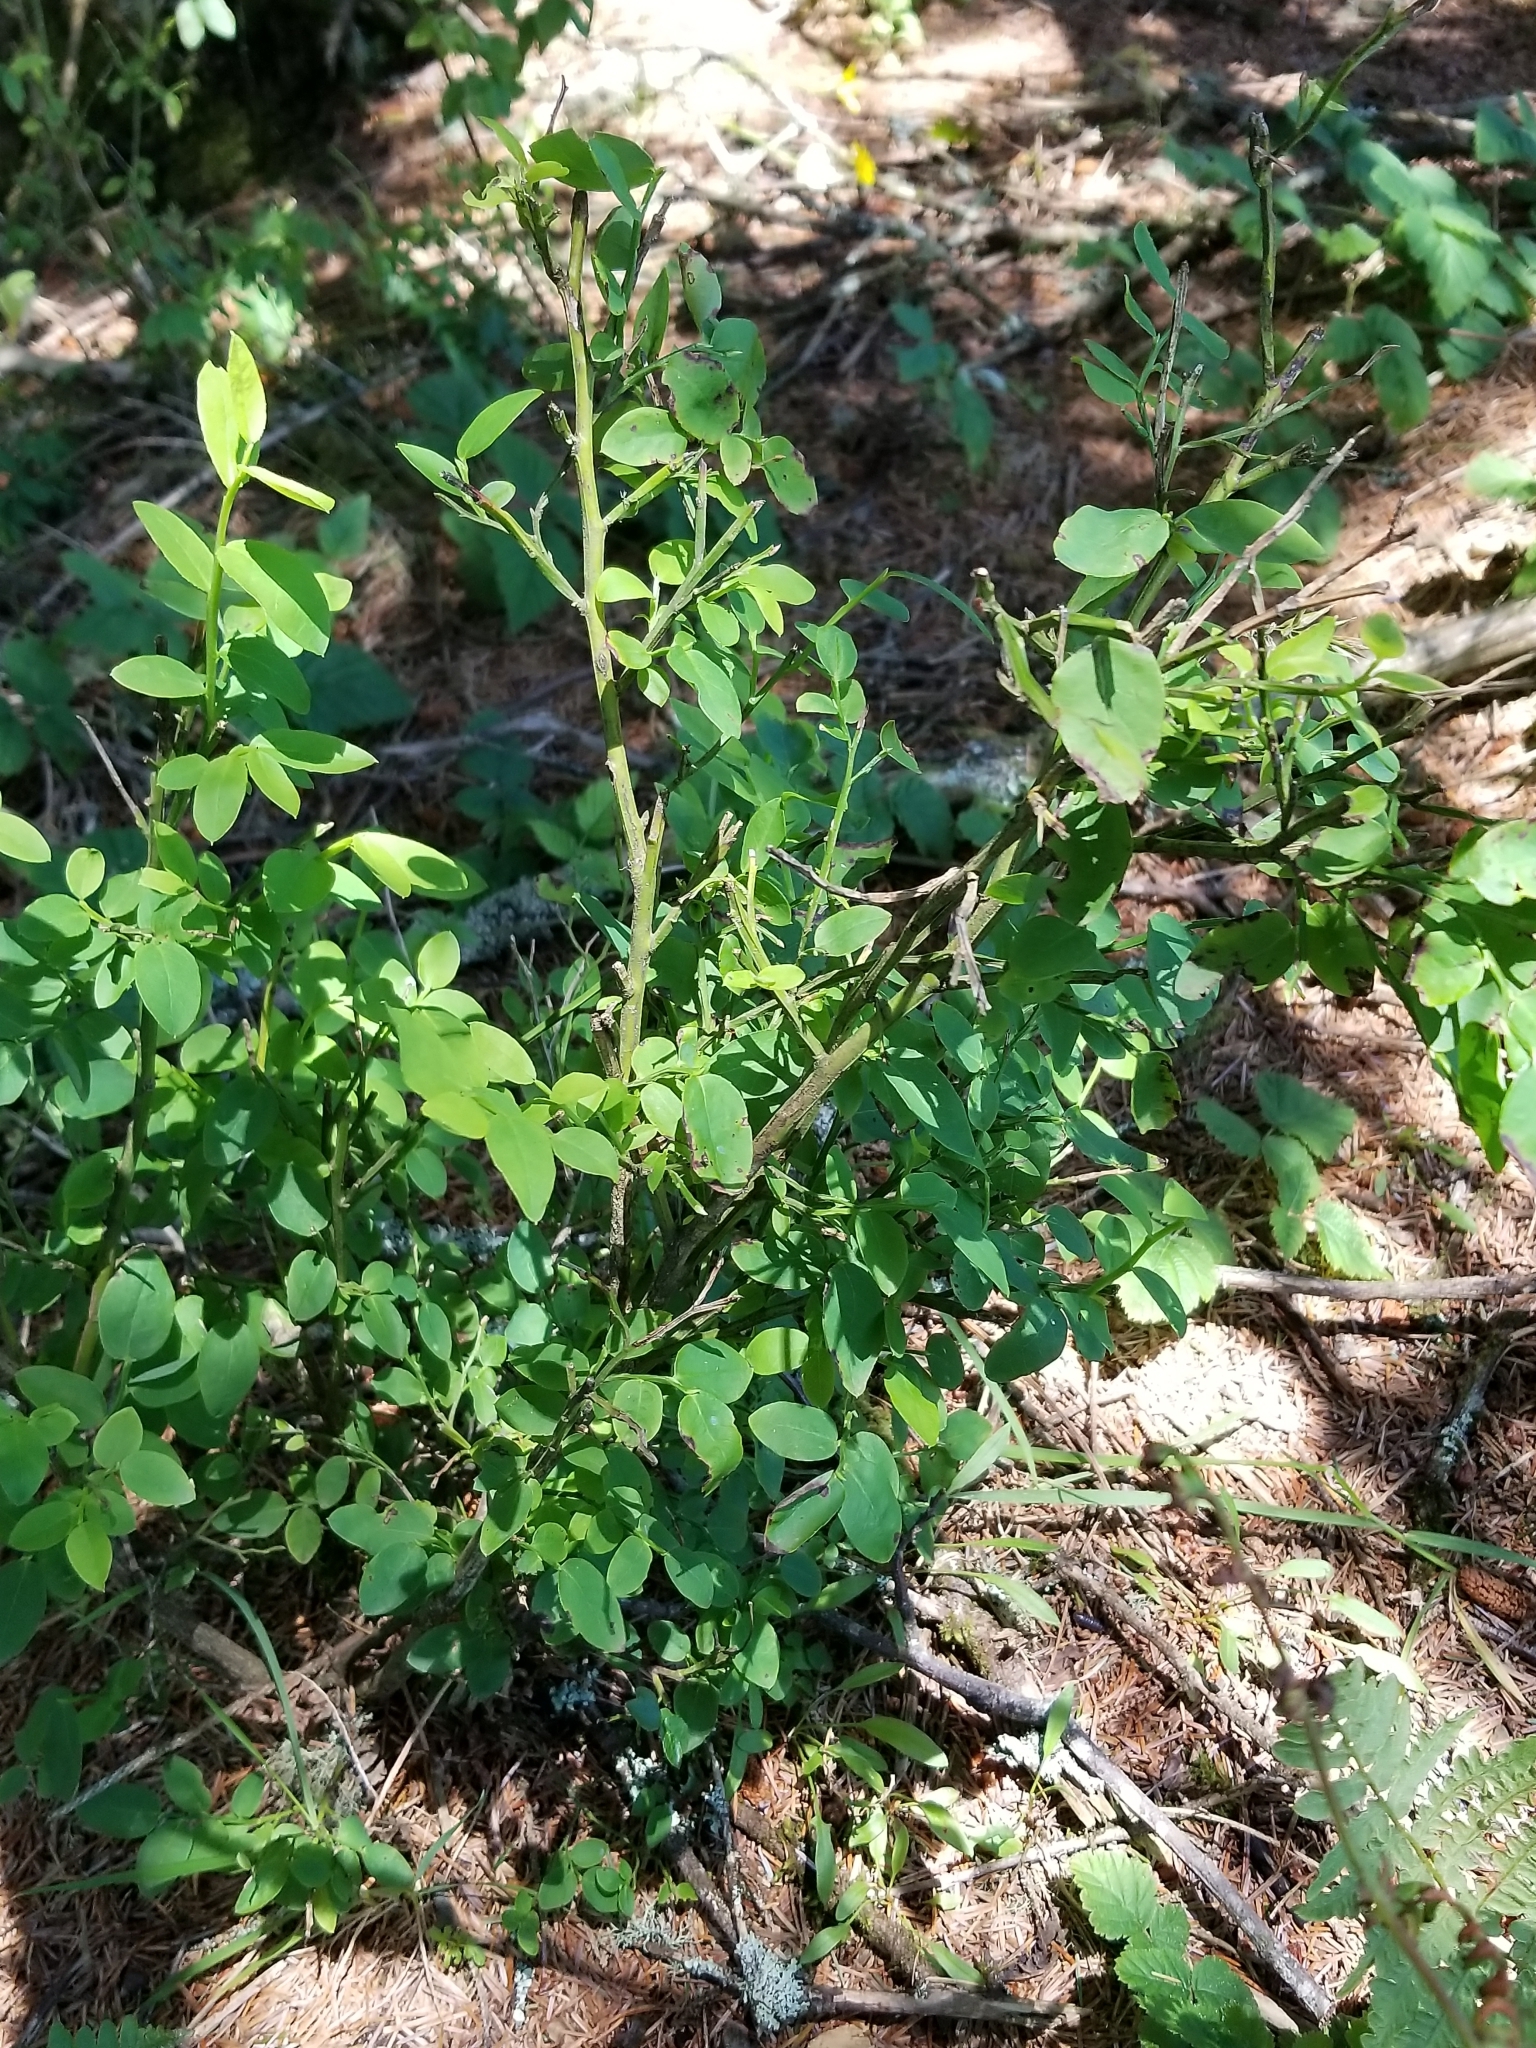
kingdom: Plantae
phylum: Tracheophyta
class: Magnoliopsida
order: Ericales
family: Ericaceae
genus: Vaccinium
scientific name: Vaccinium parvifolium
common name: Red-huckleberry
